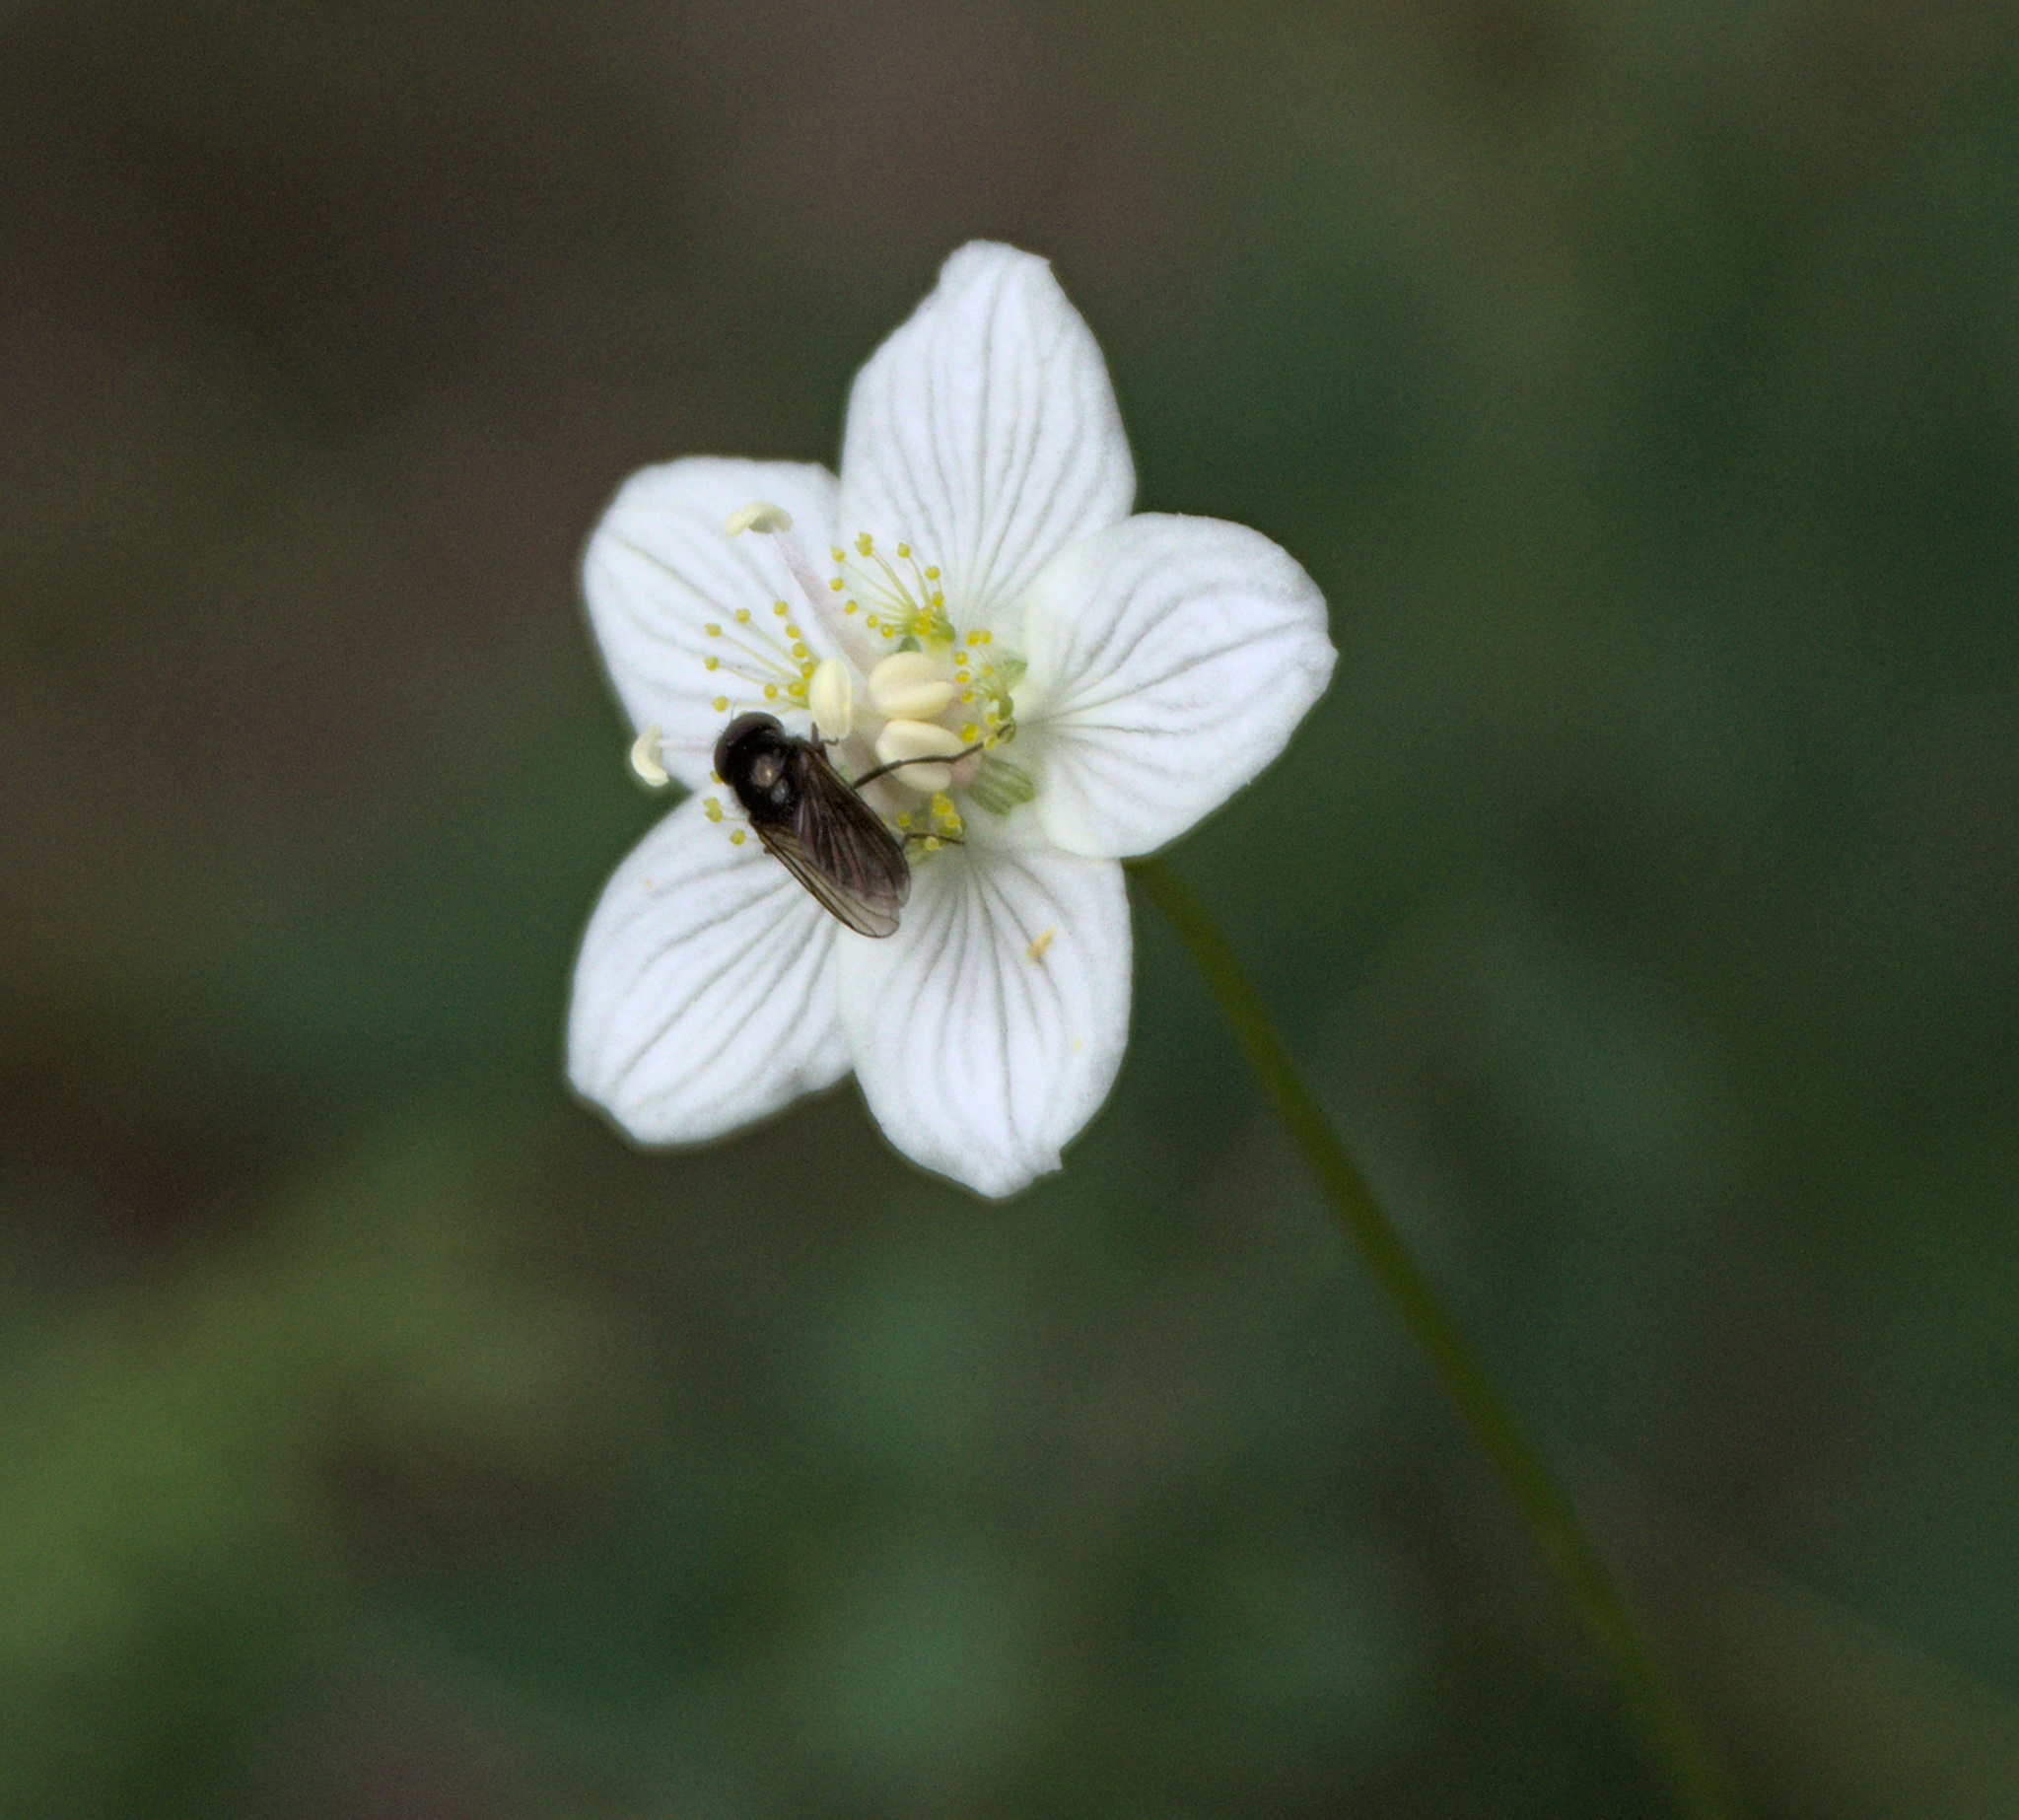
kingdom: Plantae
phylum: Tracheophyta
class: Magnoliopsida
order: Celastrales
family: Parnassiaceae
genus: Parnassia
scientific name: Parnassia palustris
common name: Grass-of-parnassus
